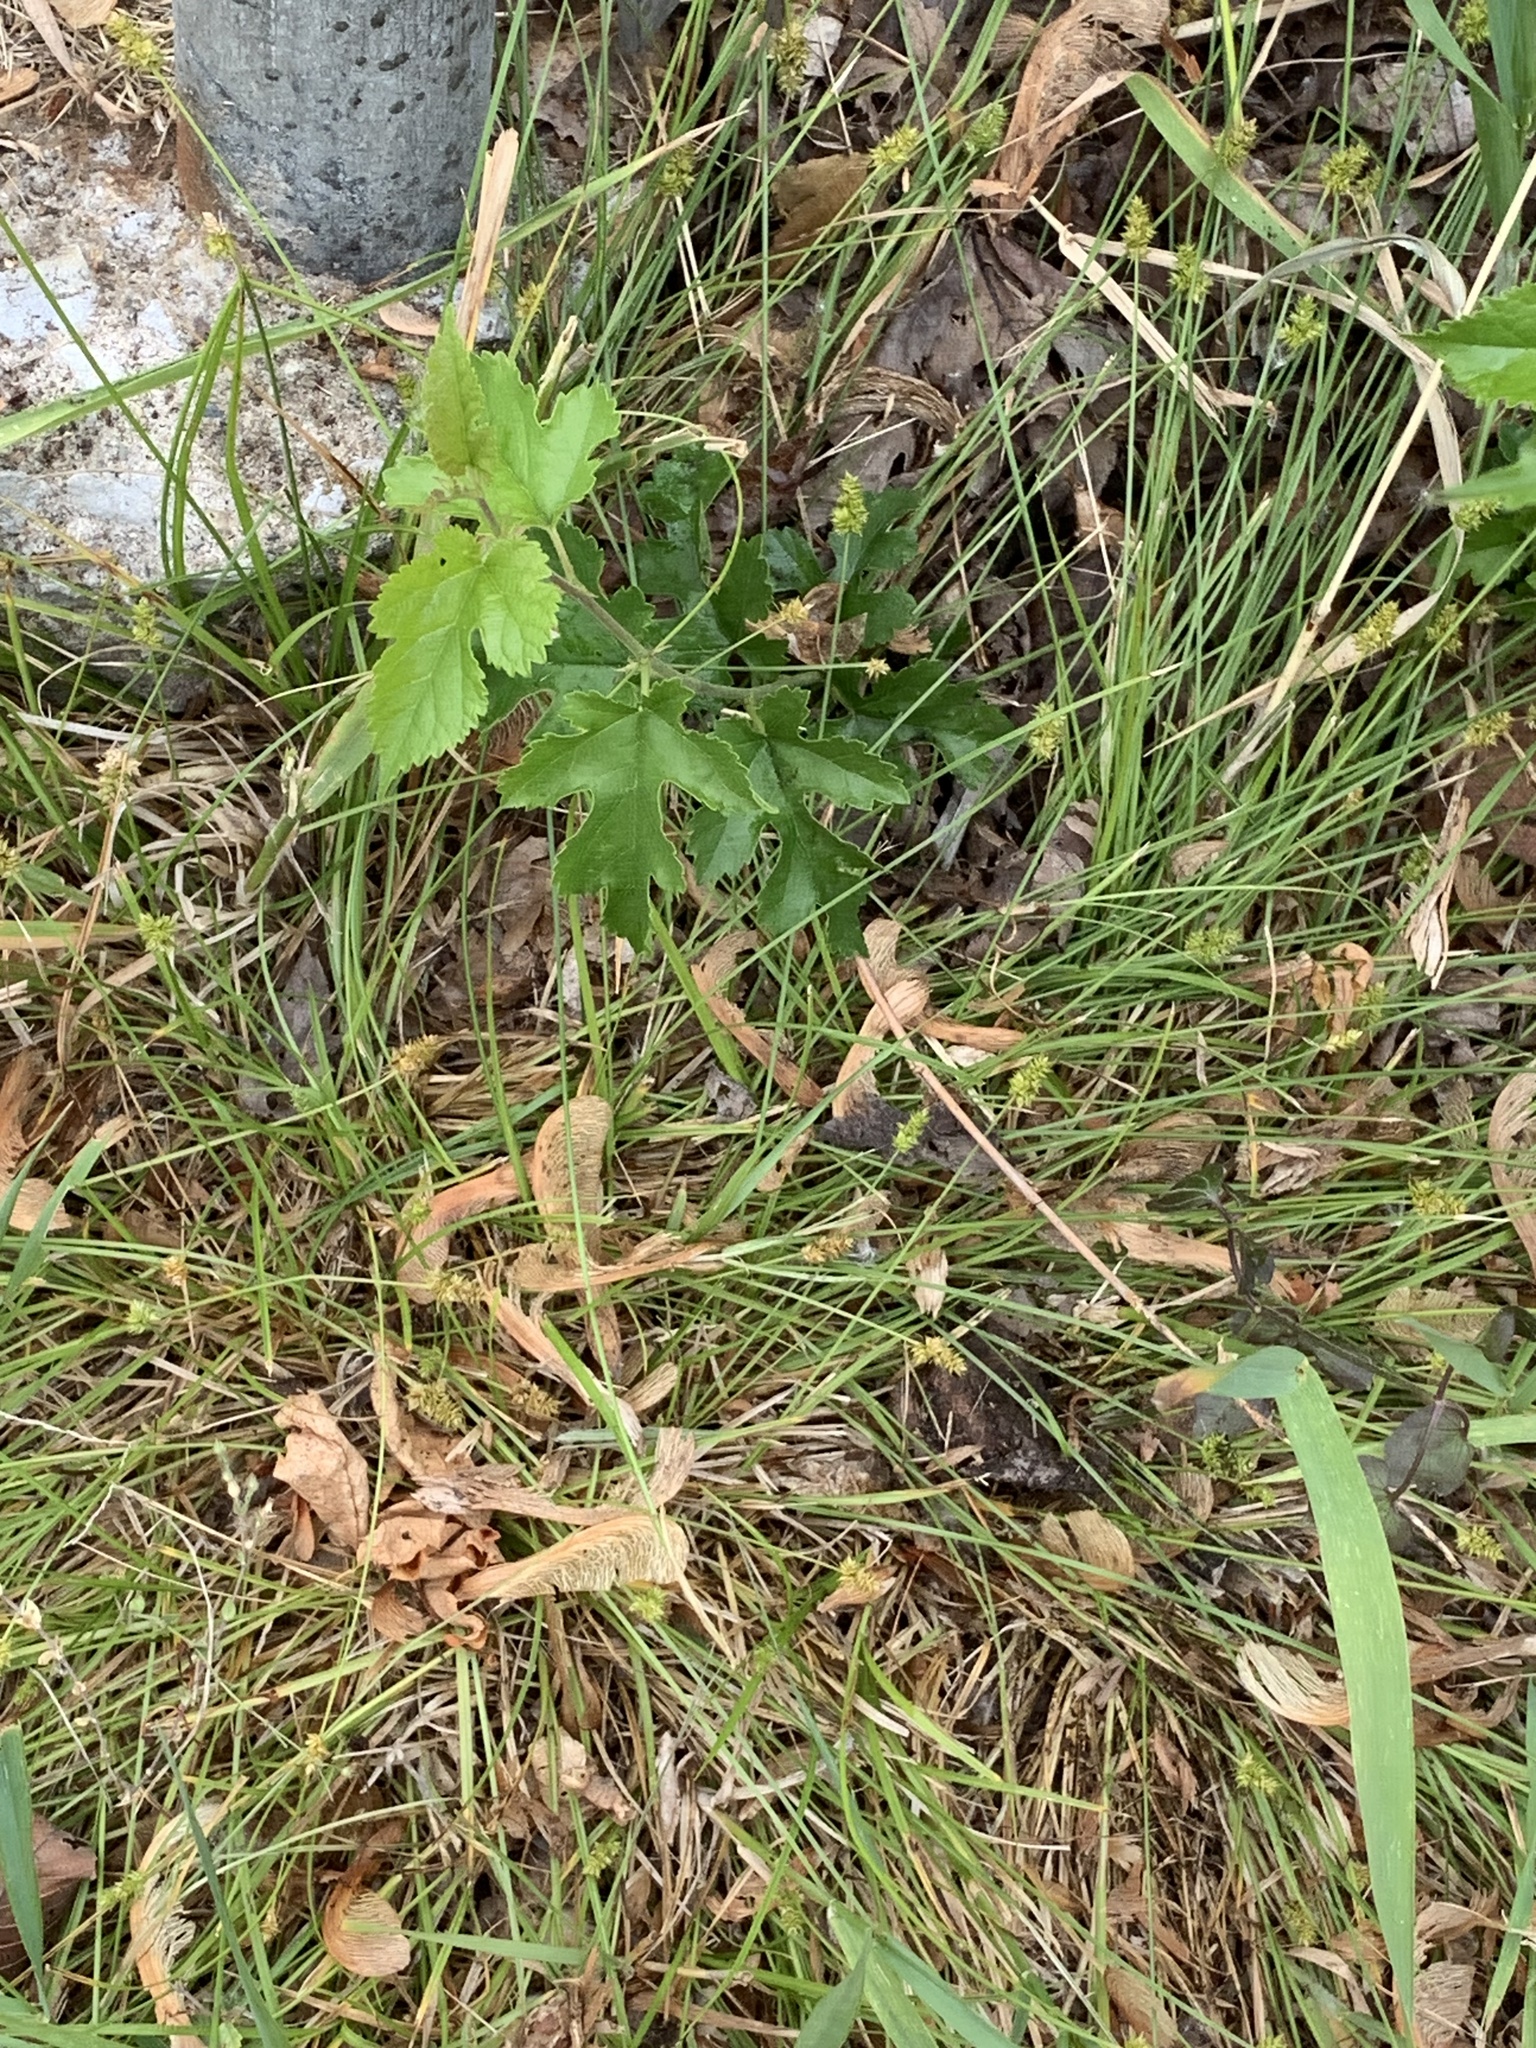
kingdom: Plantae
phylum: Tracheophyta
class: Liliopsida
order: Poales
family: Cyperaceae
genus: Carex
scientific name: Carex leavenworthii
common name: Leavenworth's bracted sedge
